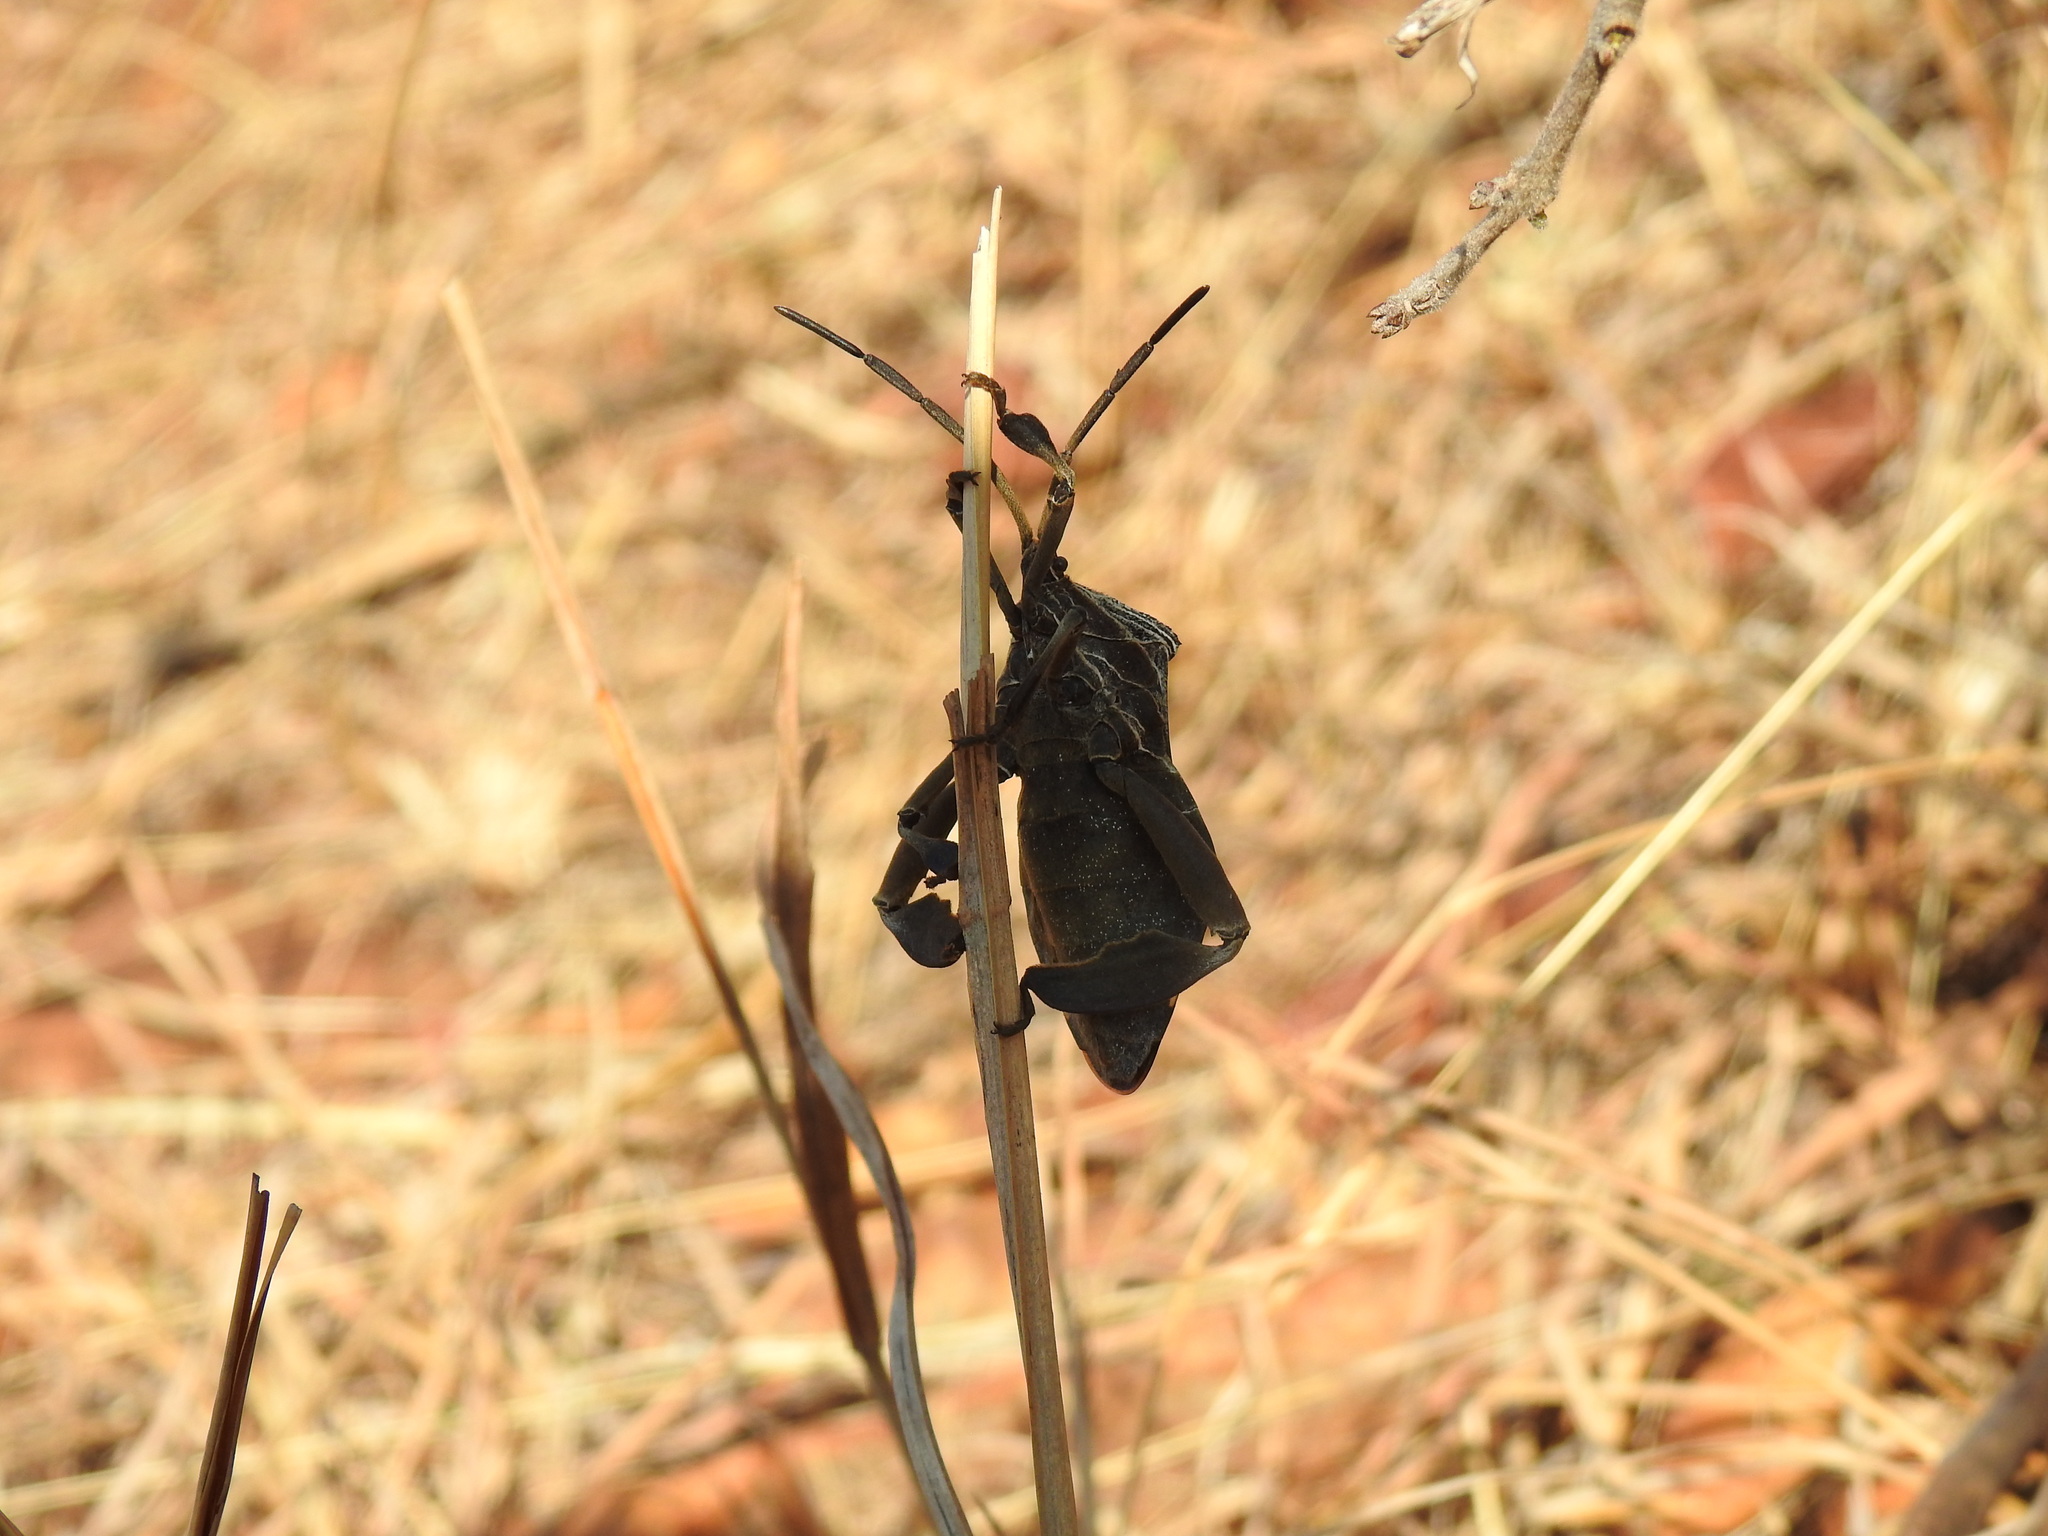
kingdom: Animalia
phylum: Arthropoda
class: Insecta
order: Hemiptera
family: Coreidae
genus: Petascelis
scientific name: Petascelis remipes
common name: Giant twig wilter
